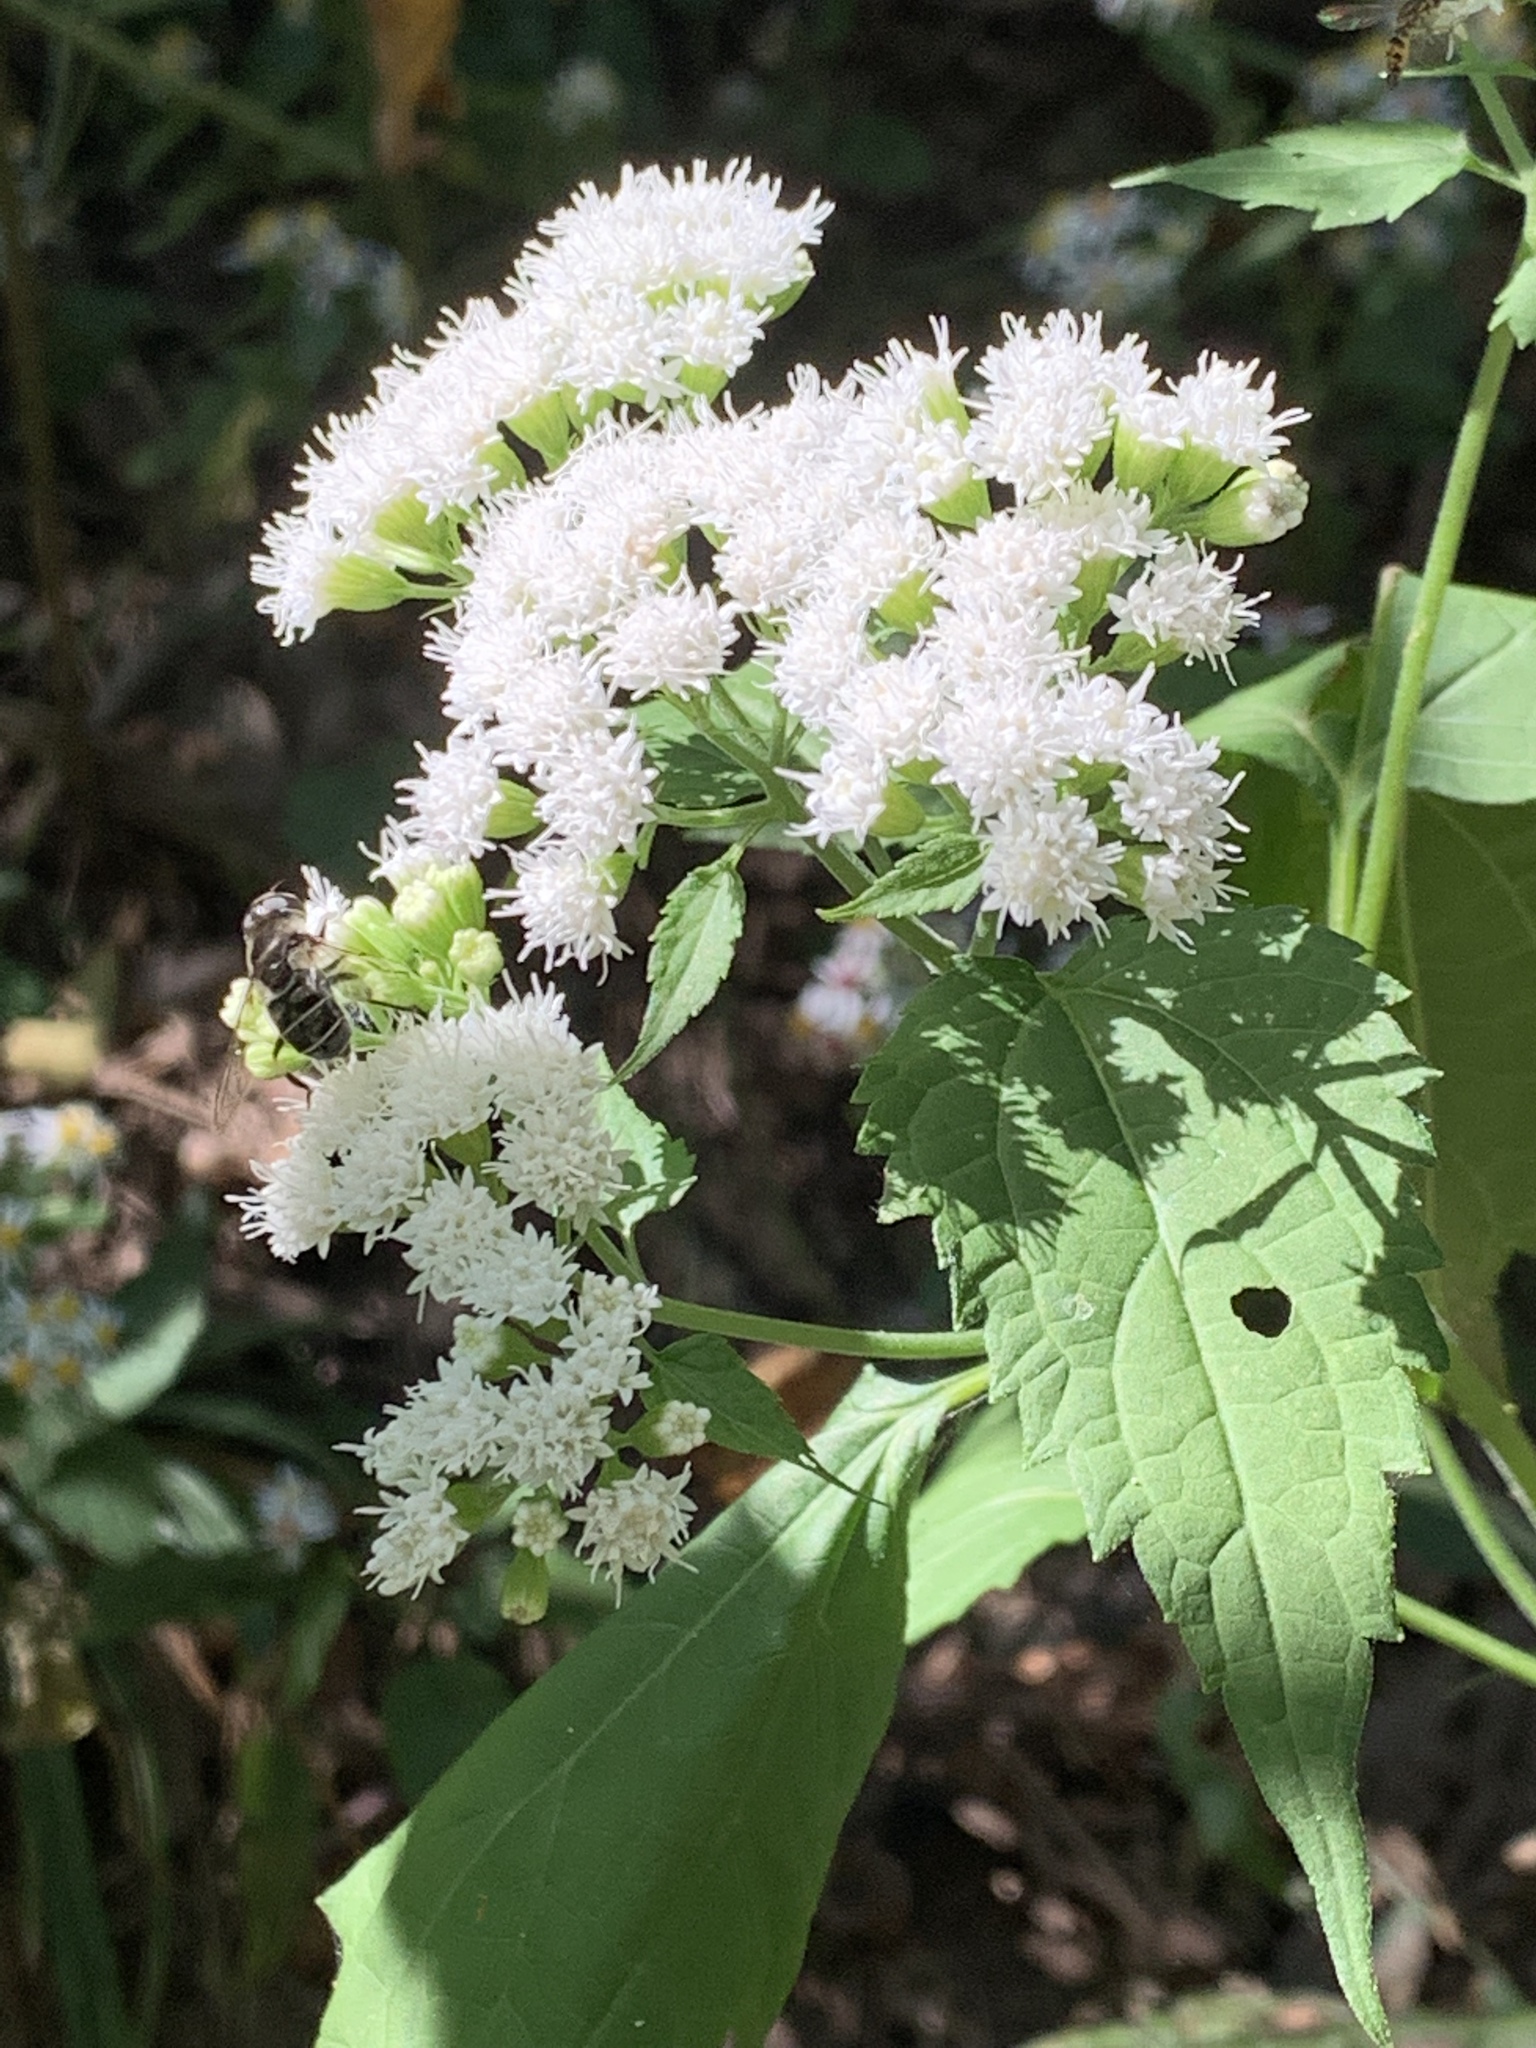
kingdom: Plantae
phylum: Tracheophyta
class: Magnoliopsida
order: Asterales
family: Asteraceae
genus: Ageratina
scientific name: Ageratina altissima
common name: White snakeroot
